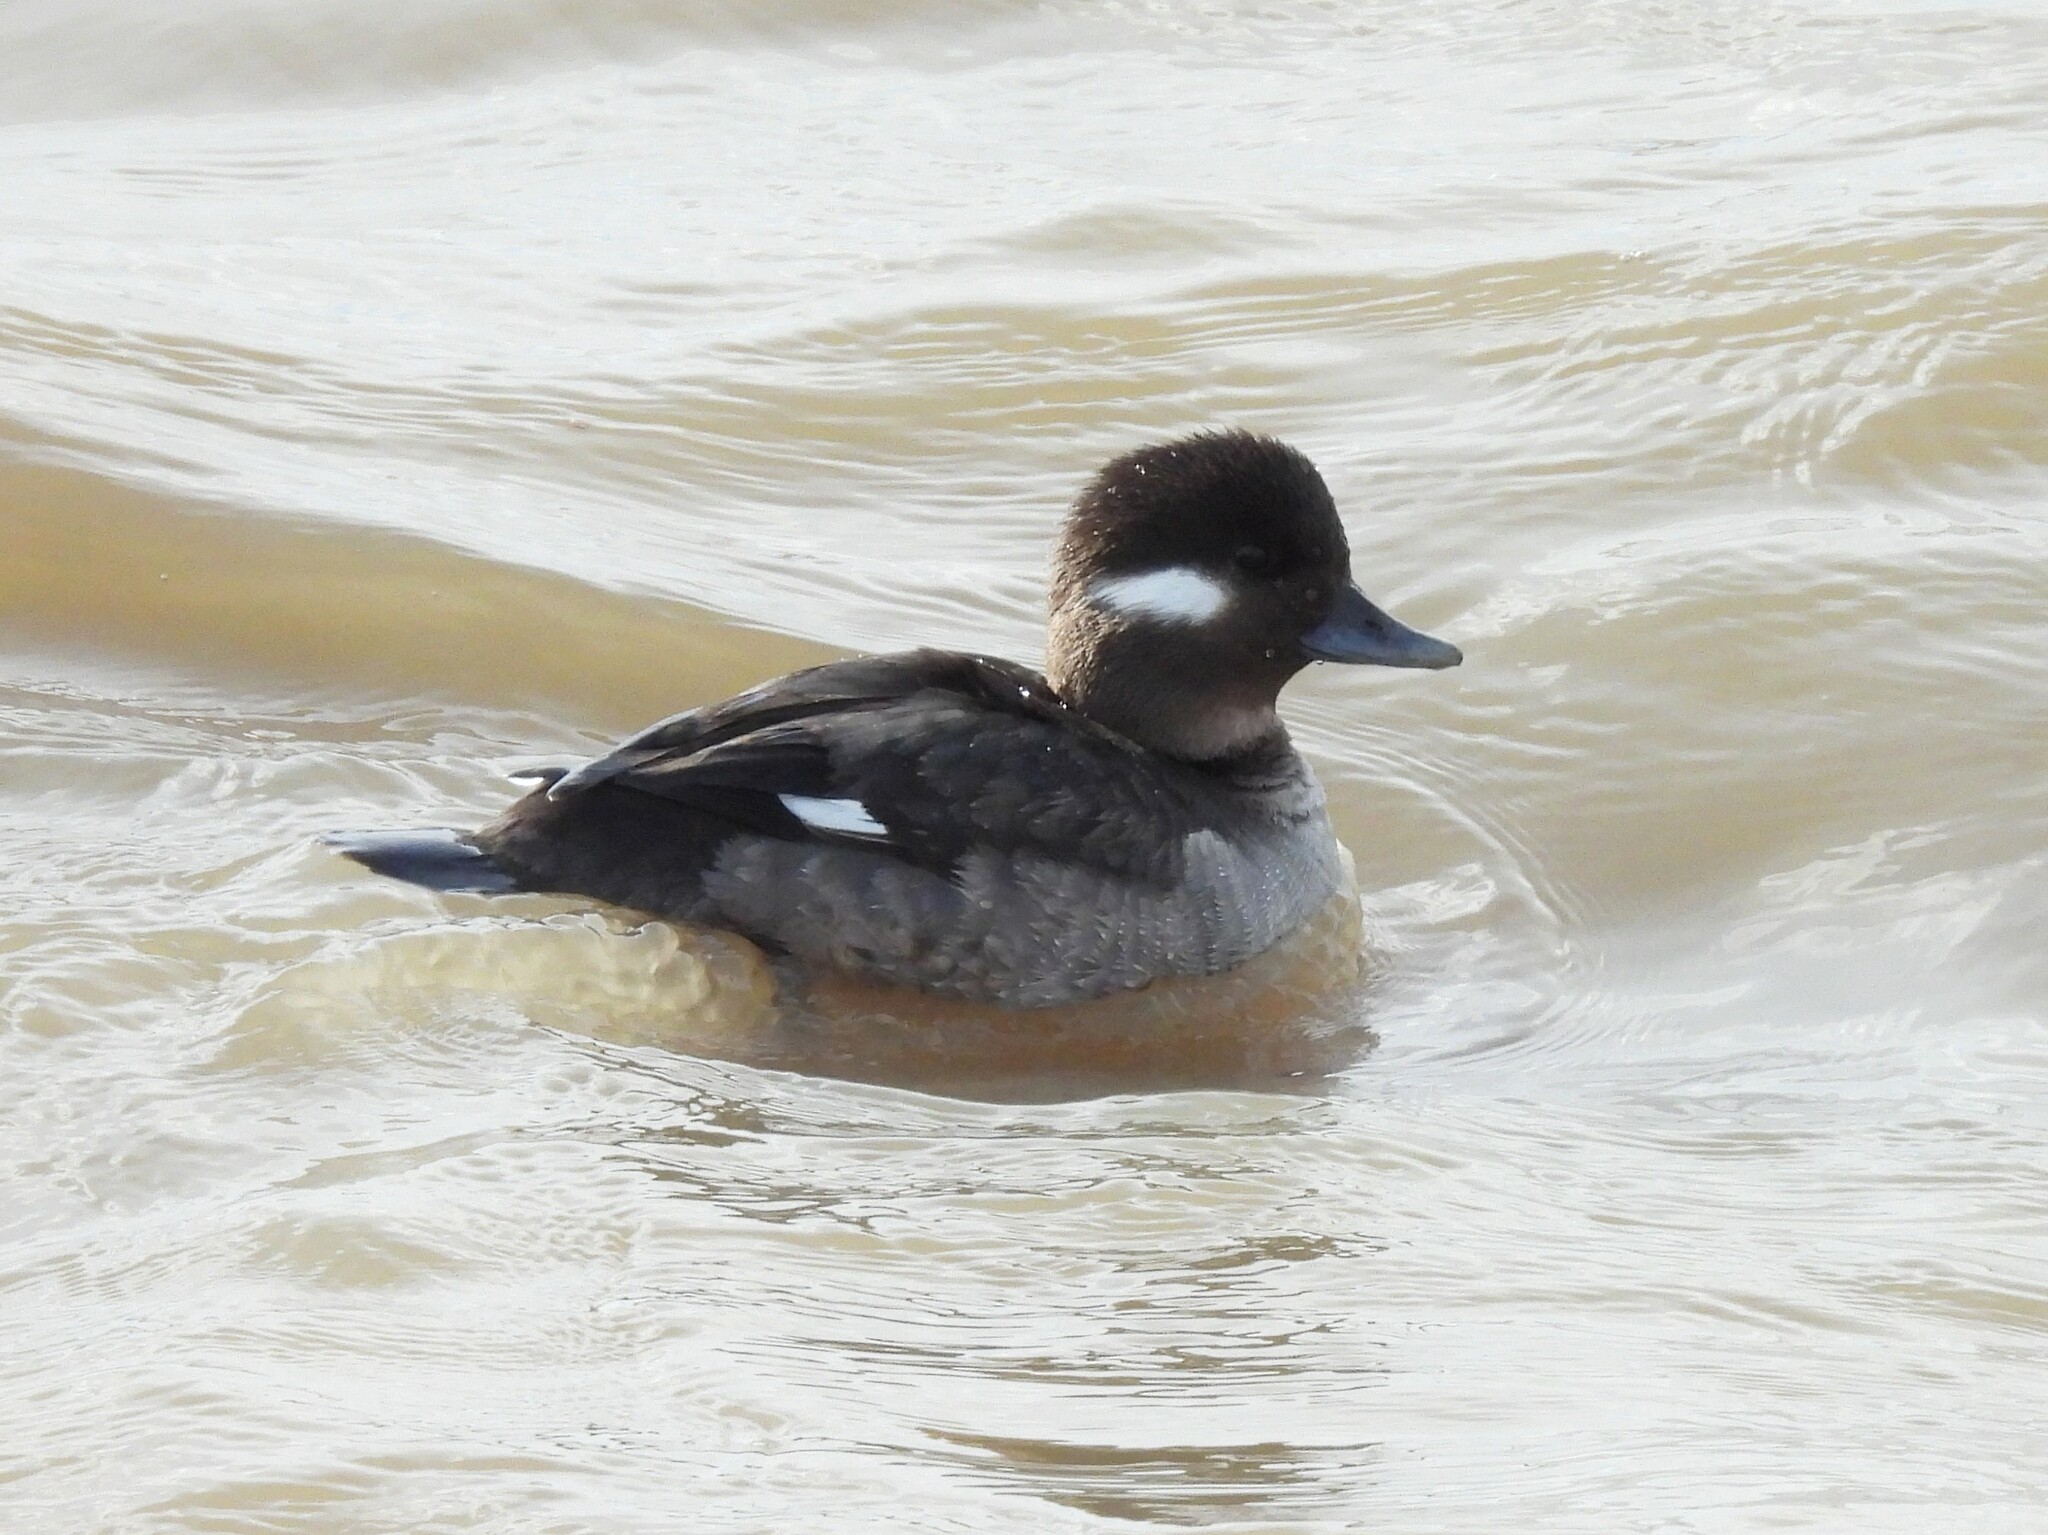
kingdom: Animalia
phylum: Chordata
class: Aves
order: Anseriformes
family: Anatidae
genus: Bucephala
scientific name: Bucephala albeola
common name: Bufflehead
